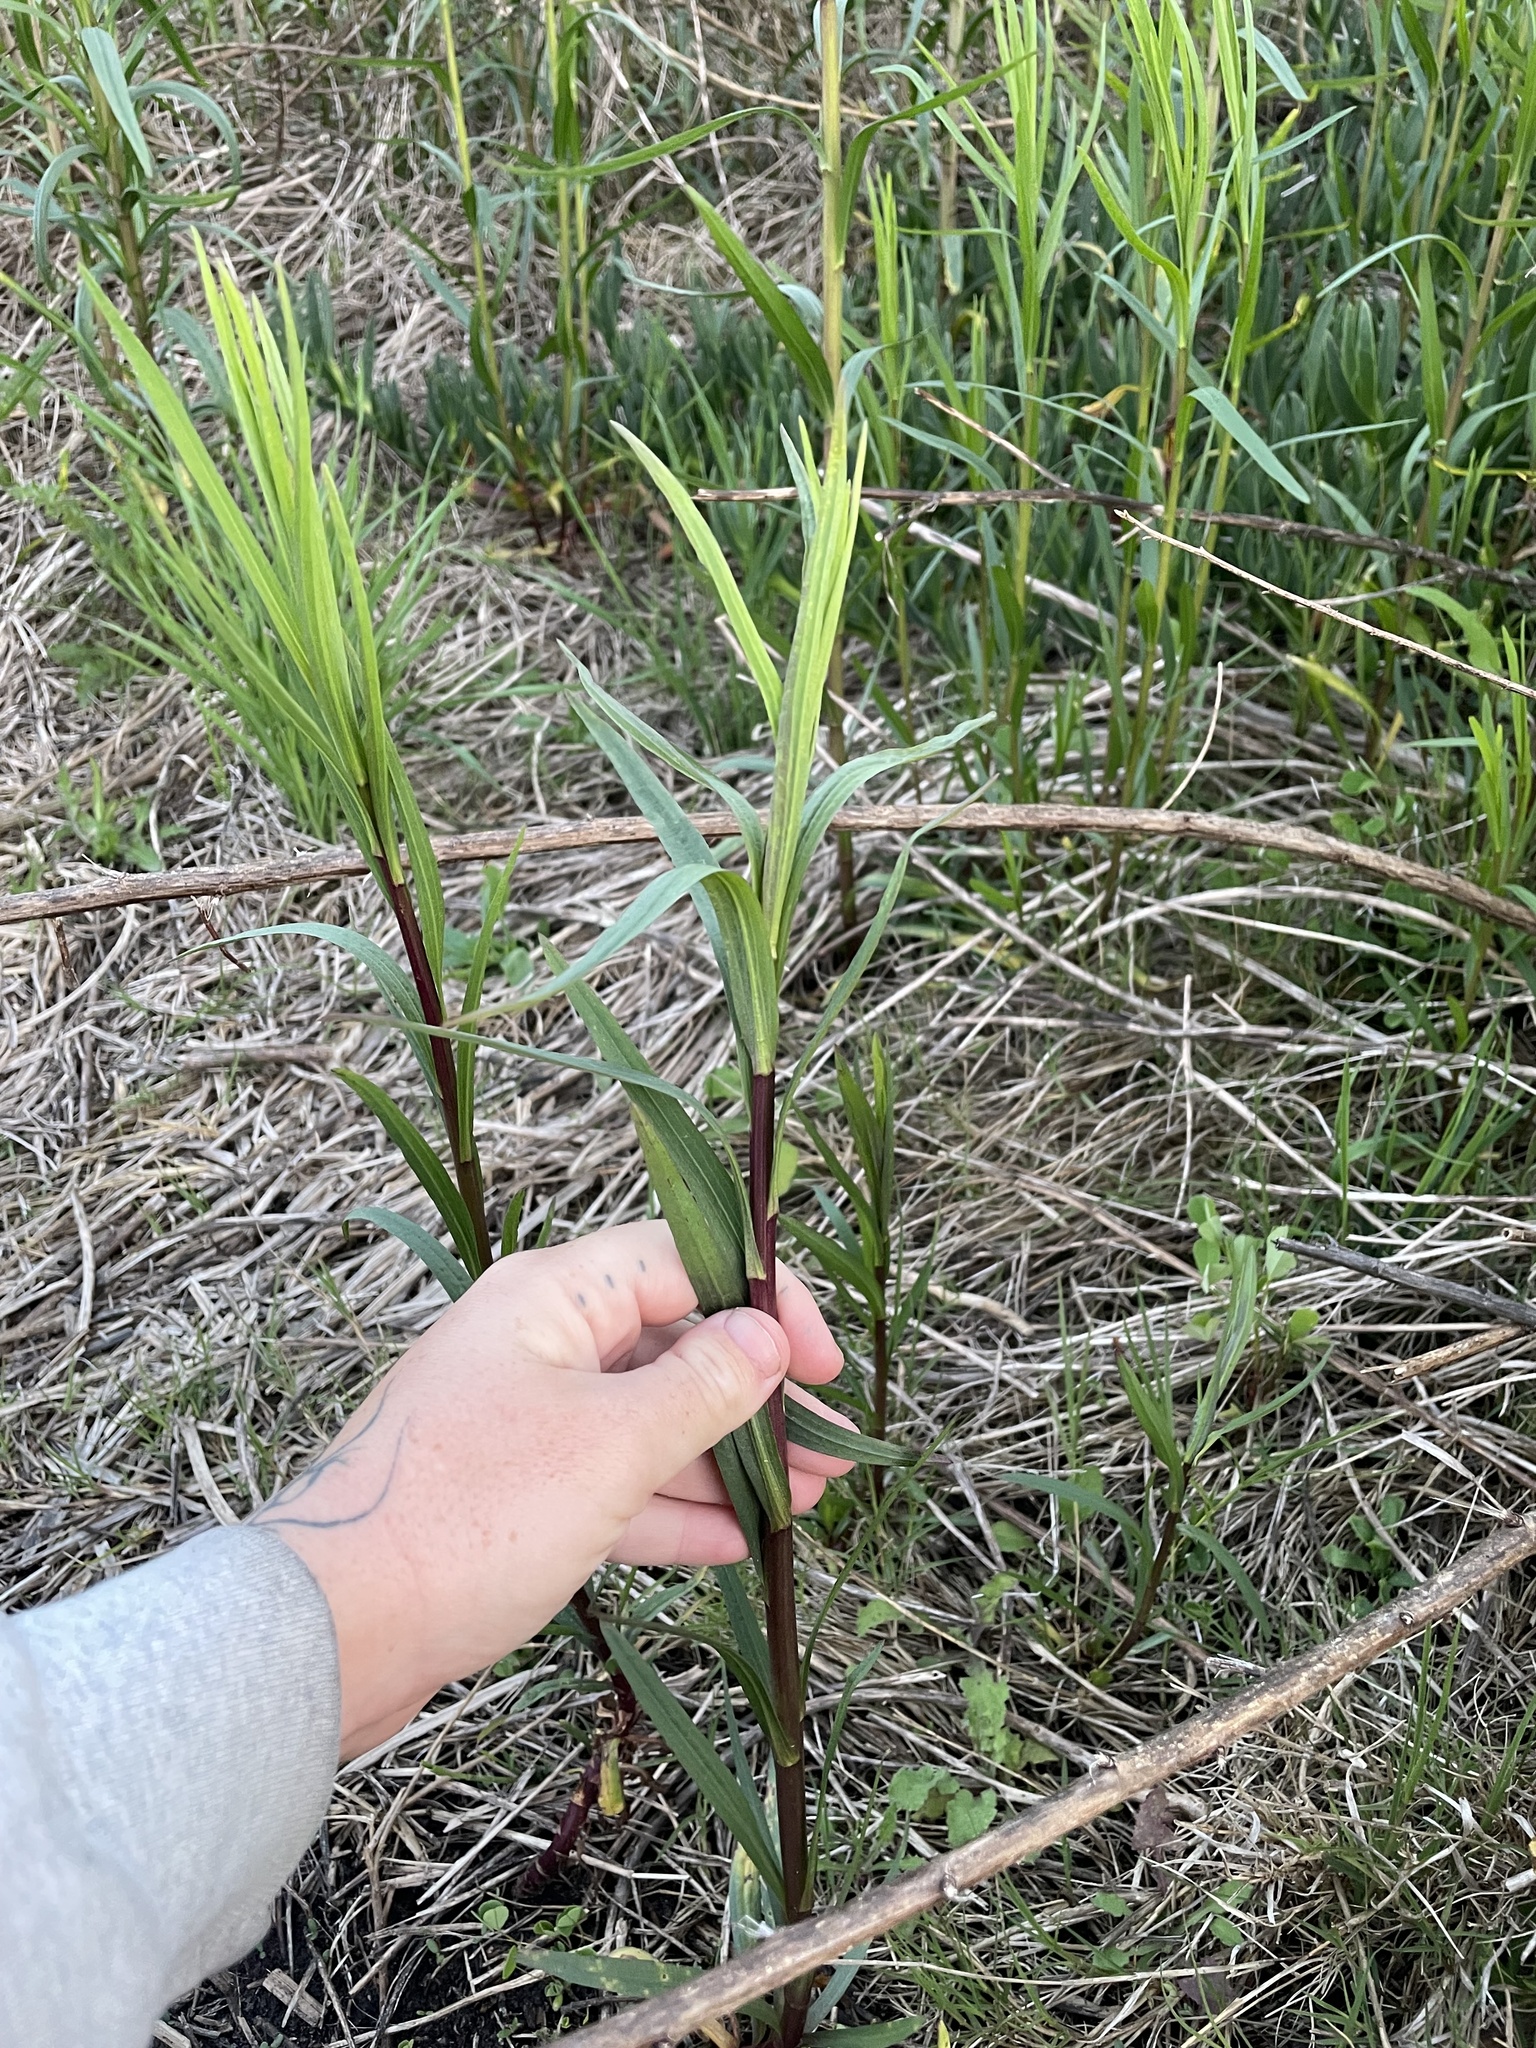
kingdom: Plantae
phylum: Tracheophyta
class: Magnoliopsida
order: Asterales
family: Asteraceae
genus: Euthamia
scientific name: Euthamia occidentalis
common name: Western goldentop
